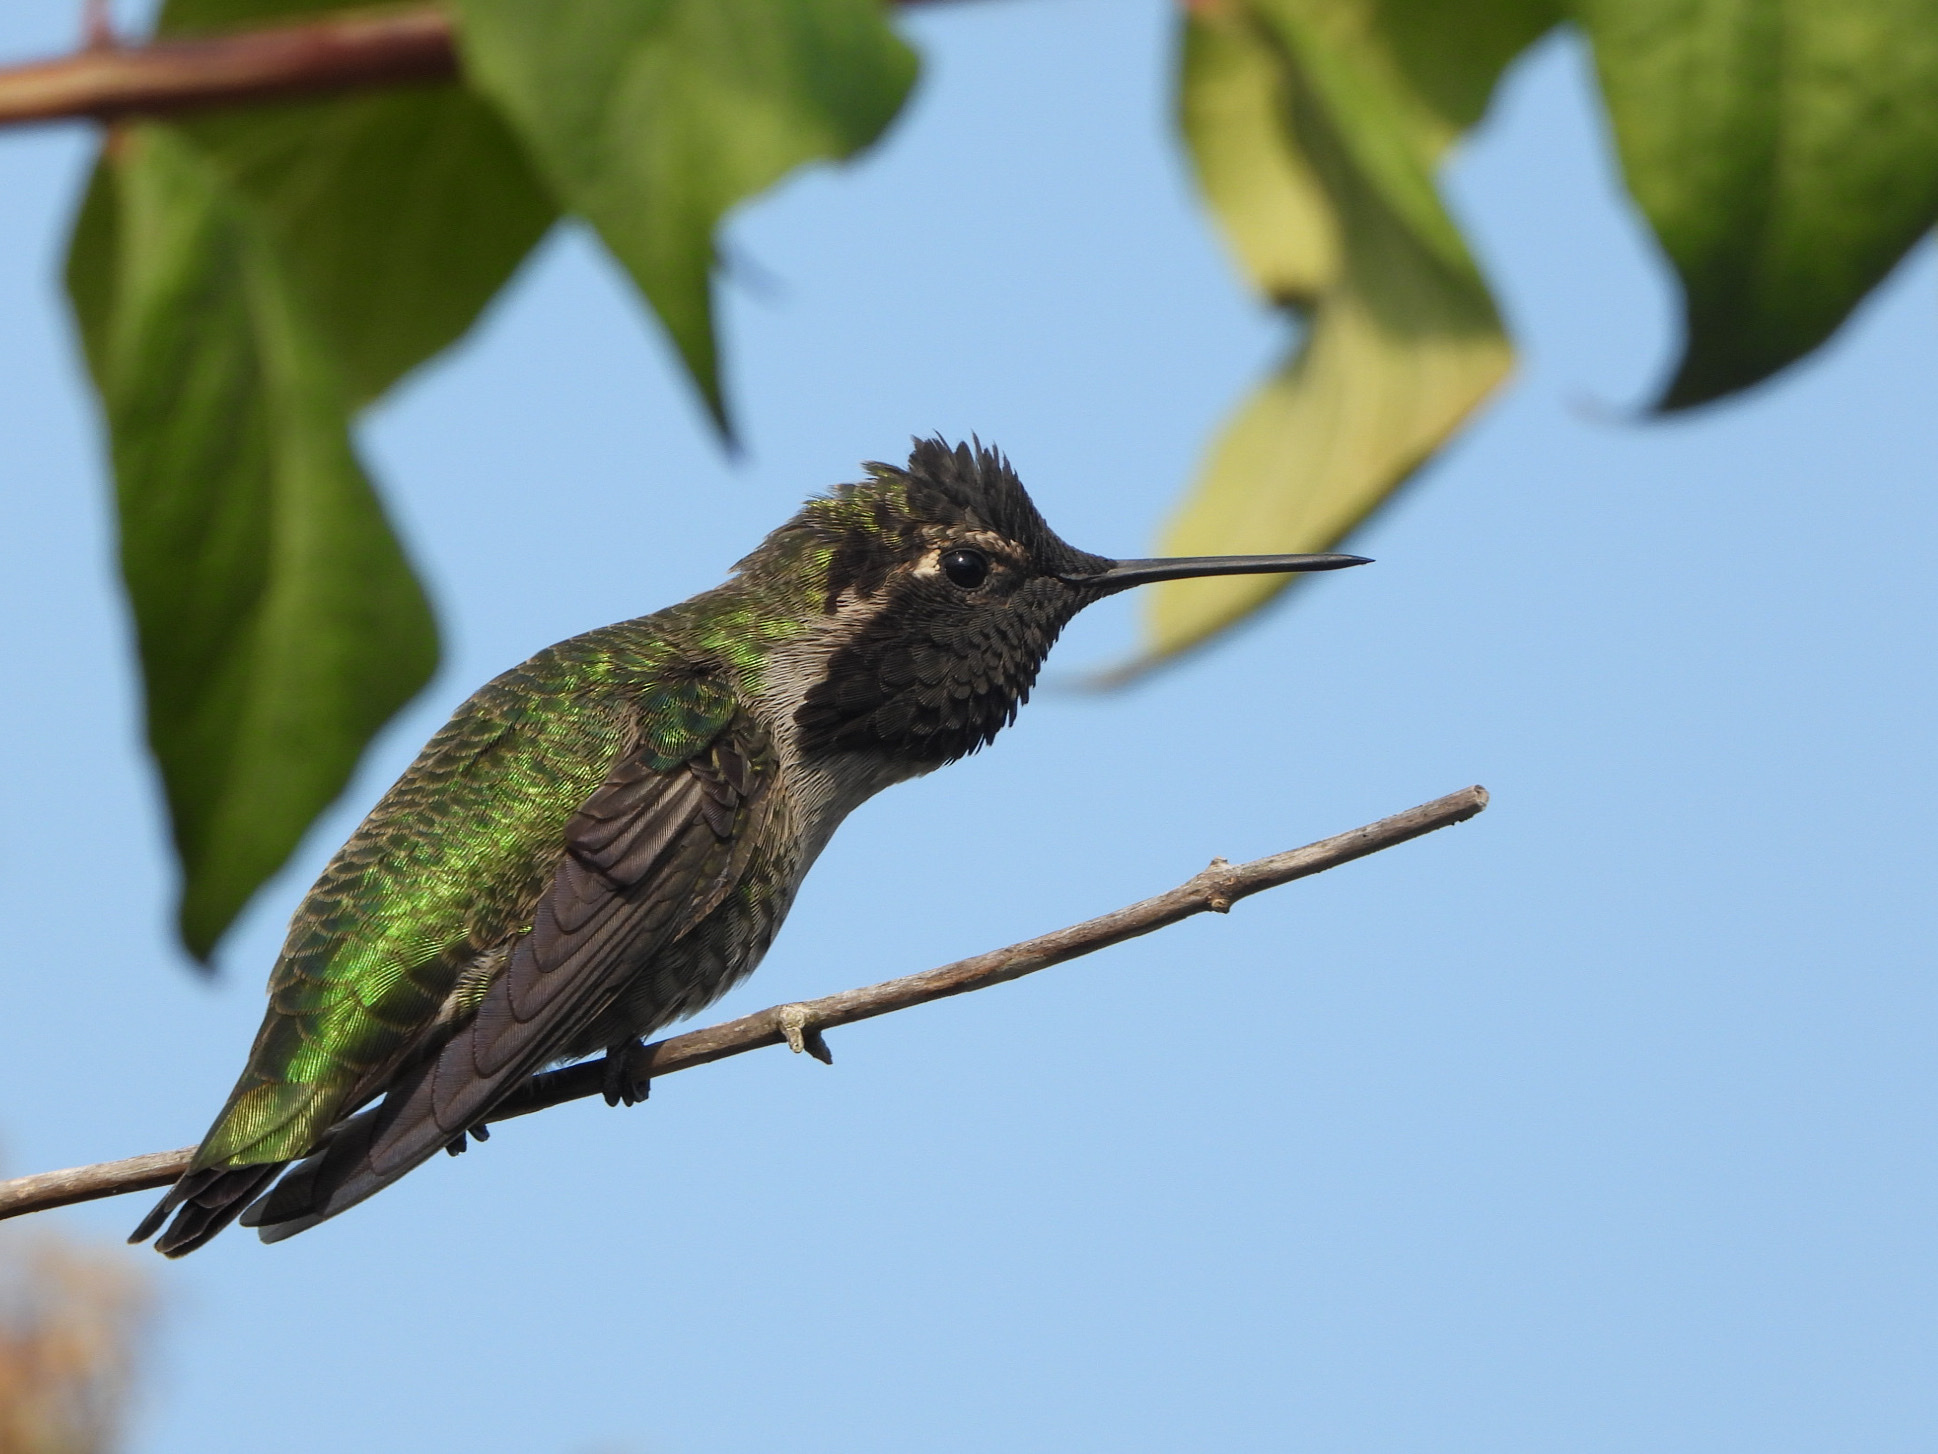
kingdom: Animalia
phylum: Chordata
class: Aves
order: Apodiformes
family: Trochilidae
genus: Calypte
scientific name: Calypte anna
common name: Anna's hummingbird
